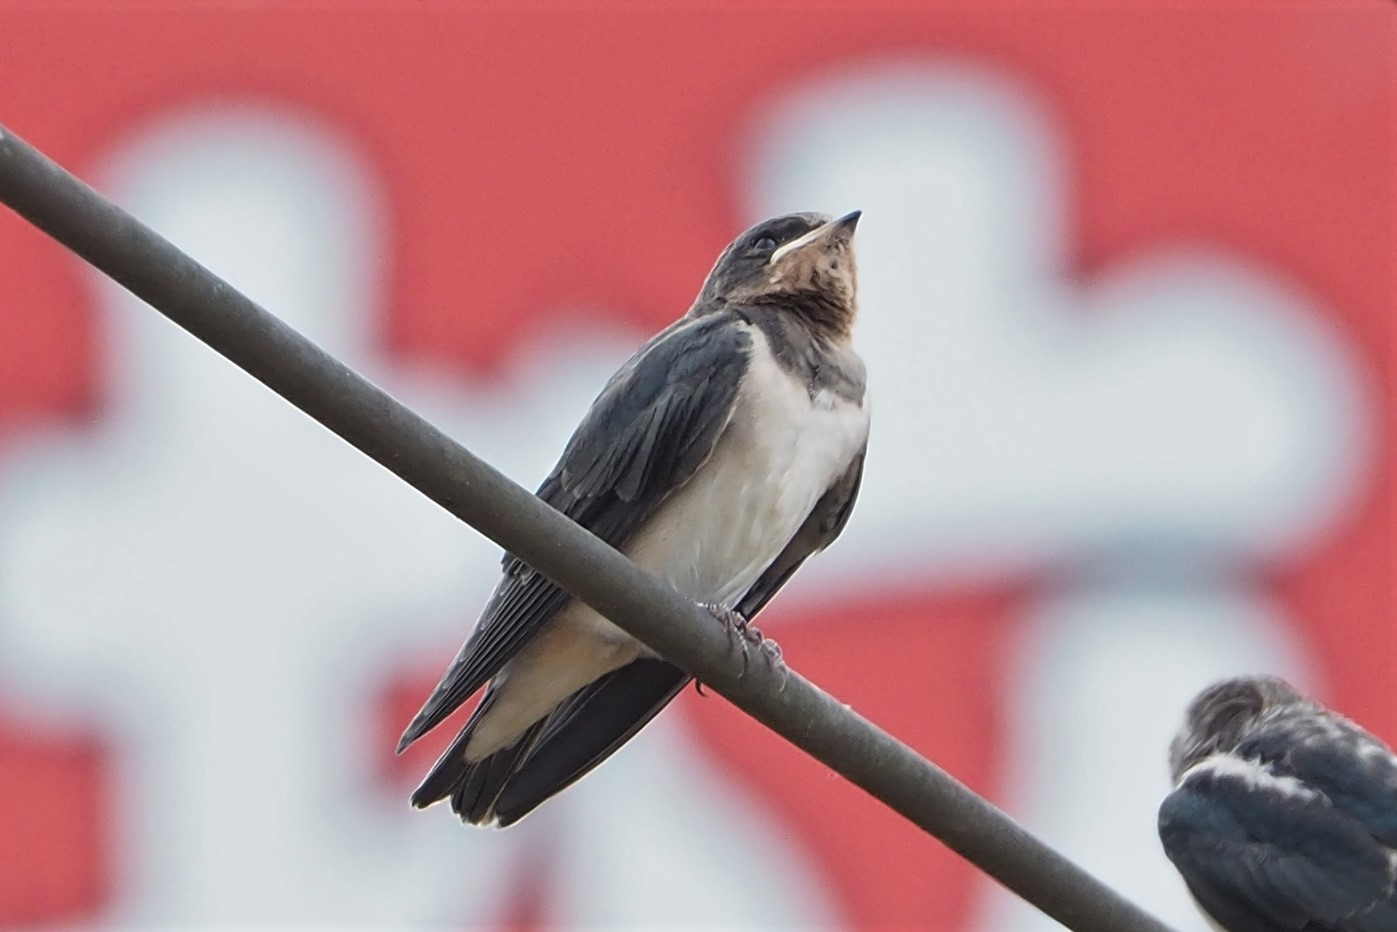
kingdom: Animalia
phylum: Chordata
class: Aves
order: Passeriformes
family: Hirundinidae
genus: Hirundo
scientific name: Hirundo rustica
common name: Barn swallow
